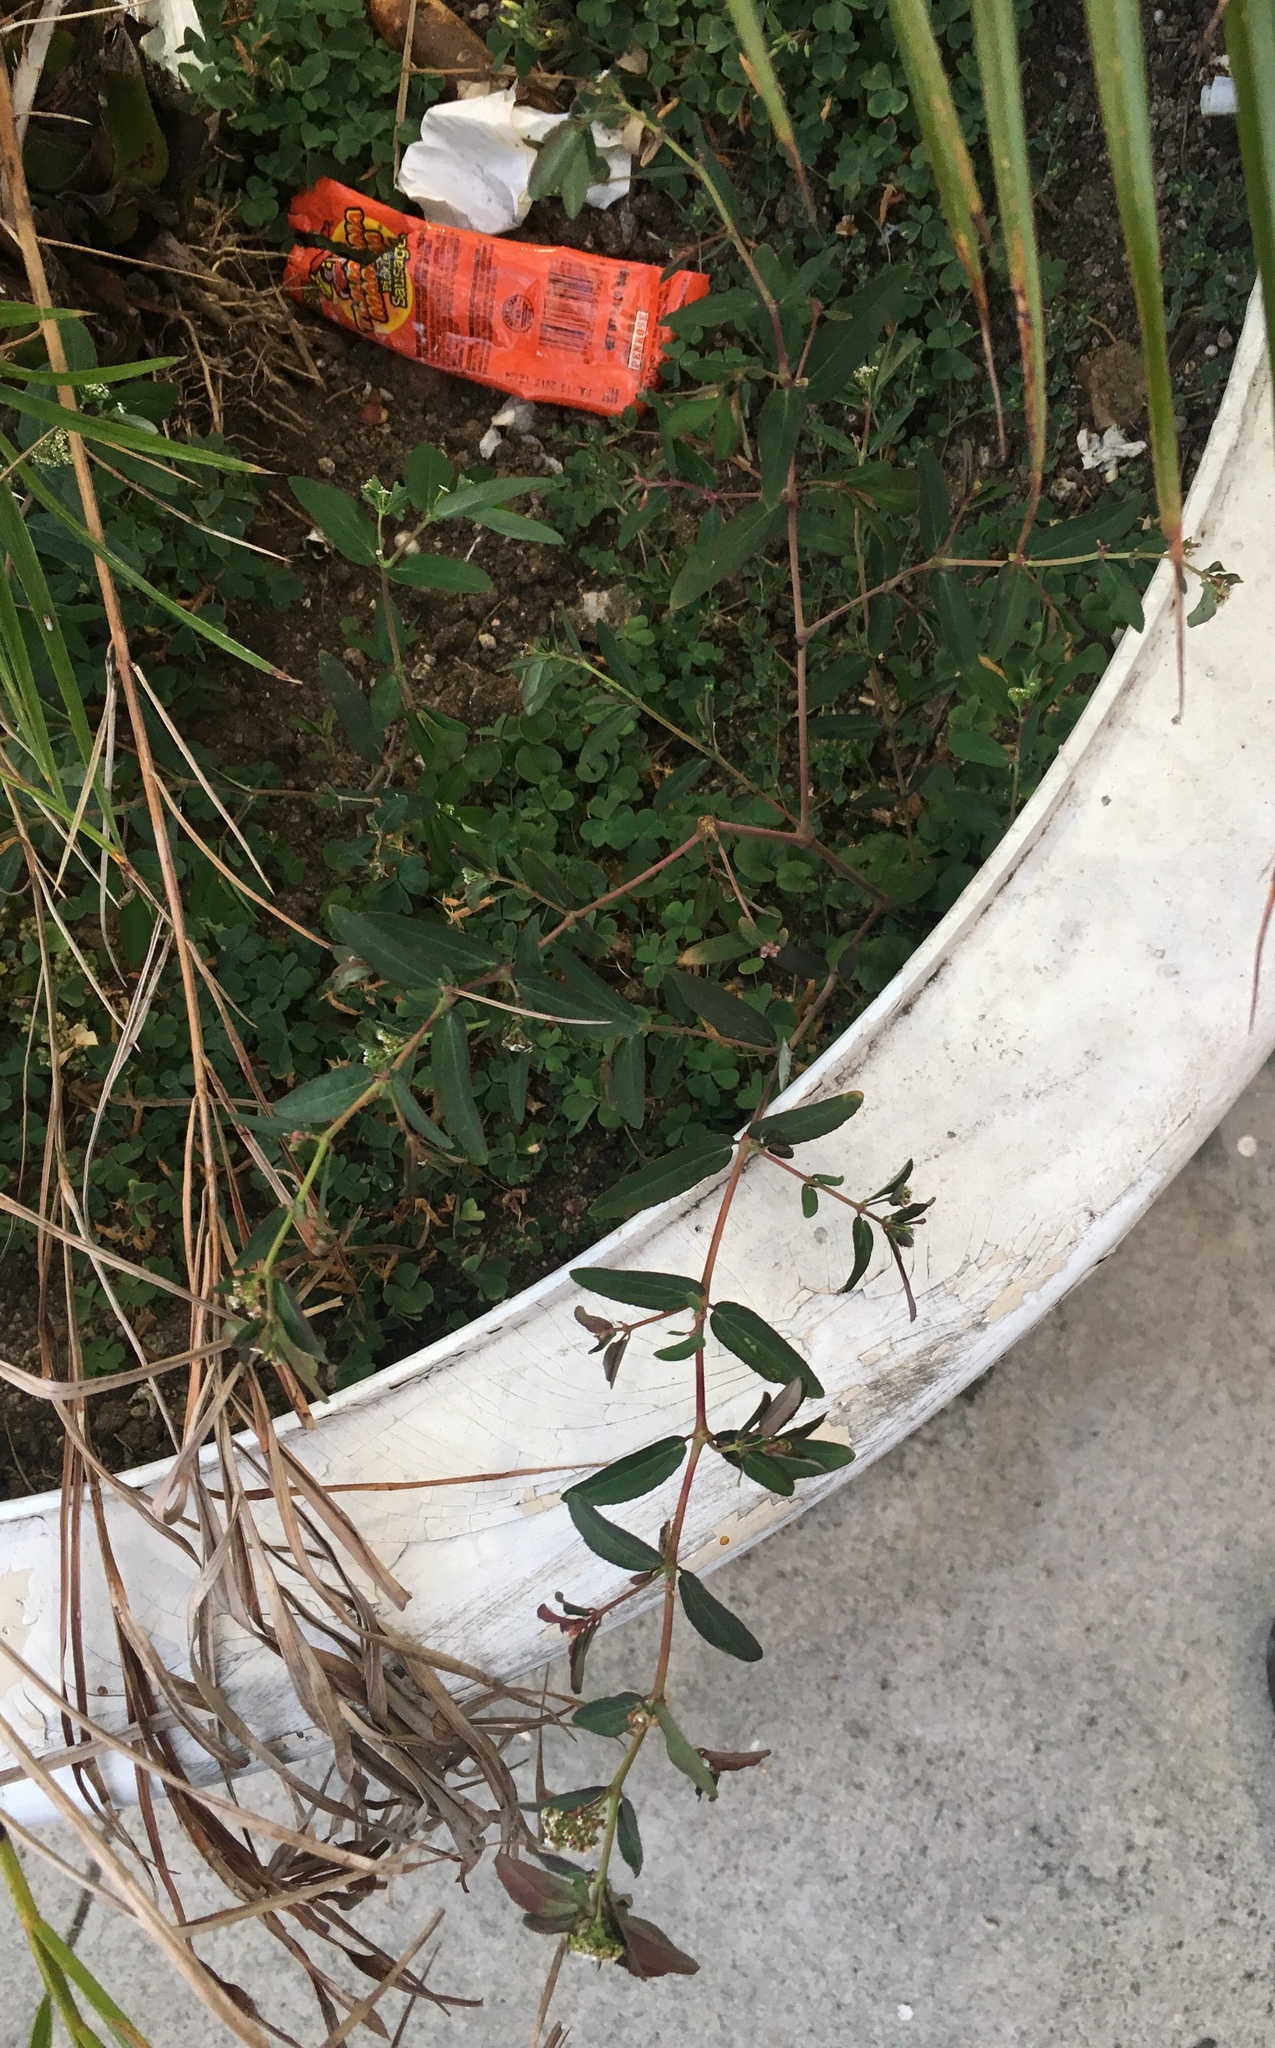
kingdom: Plantae
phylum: Tracheophyta
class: Magnoliopsida
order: Malpighiales
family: Euphorbiaceae
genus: Euphorbia
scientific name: Euphorbia hypericifolia
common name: Graceful sandmat
